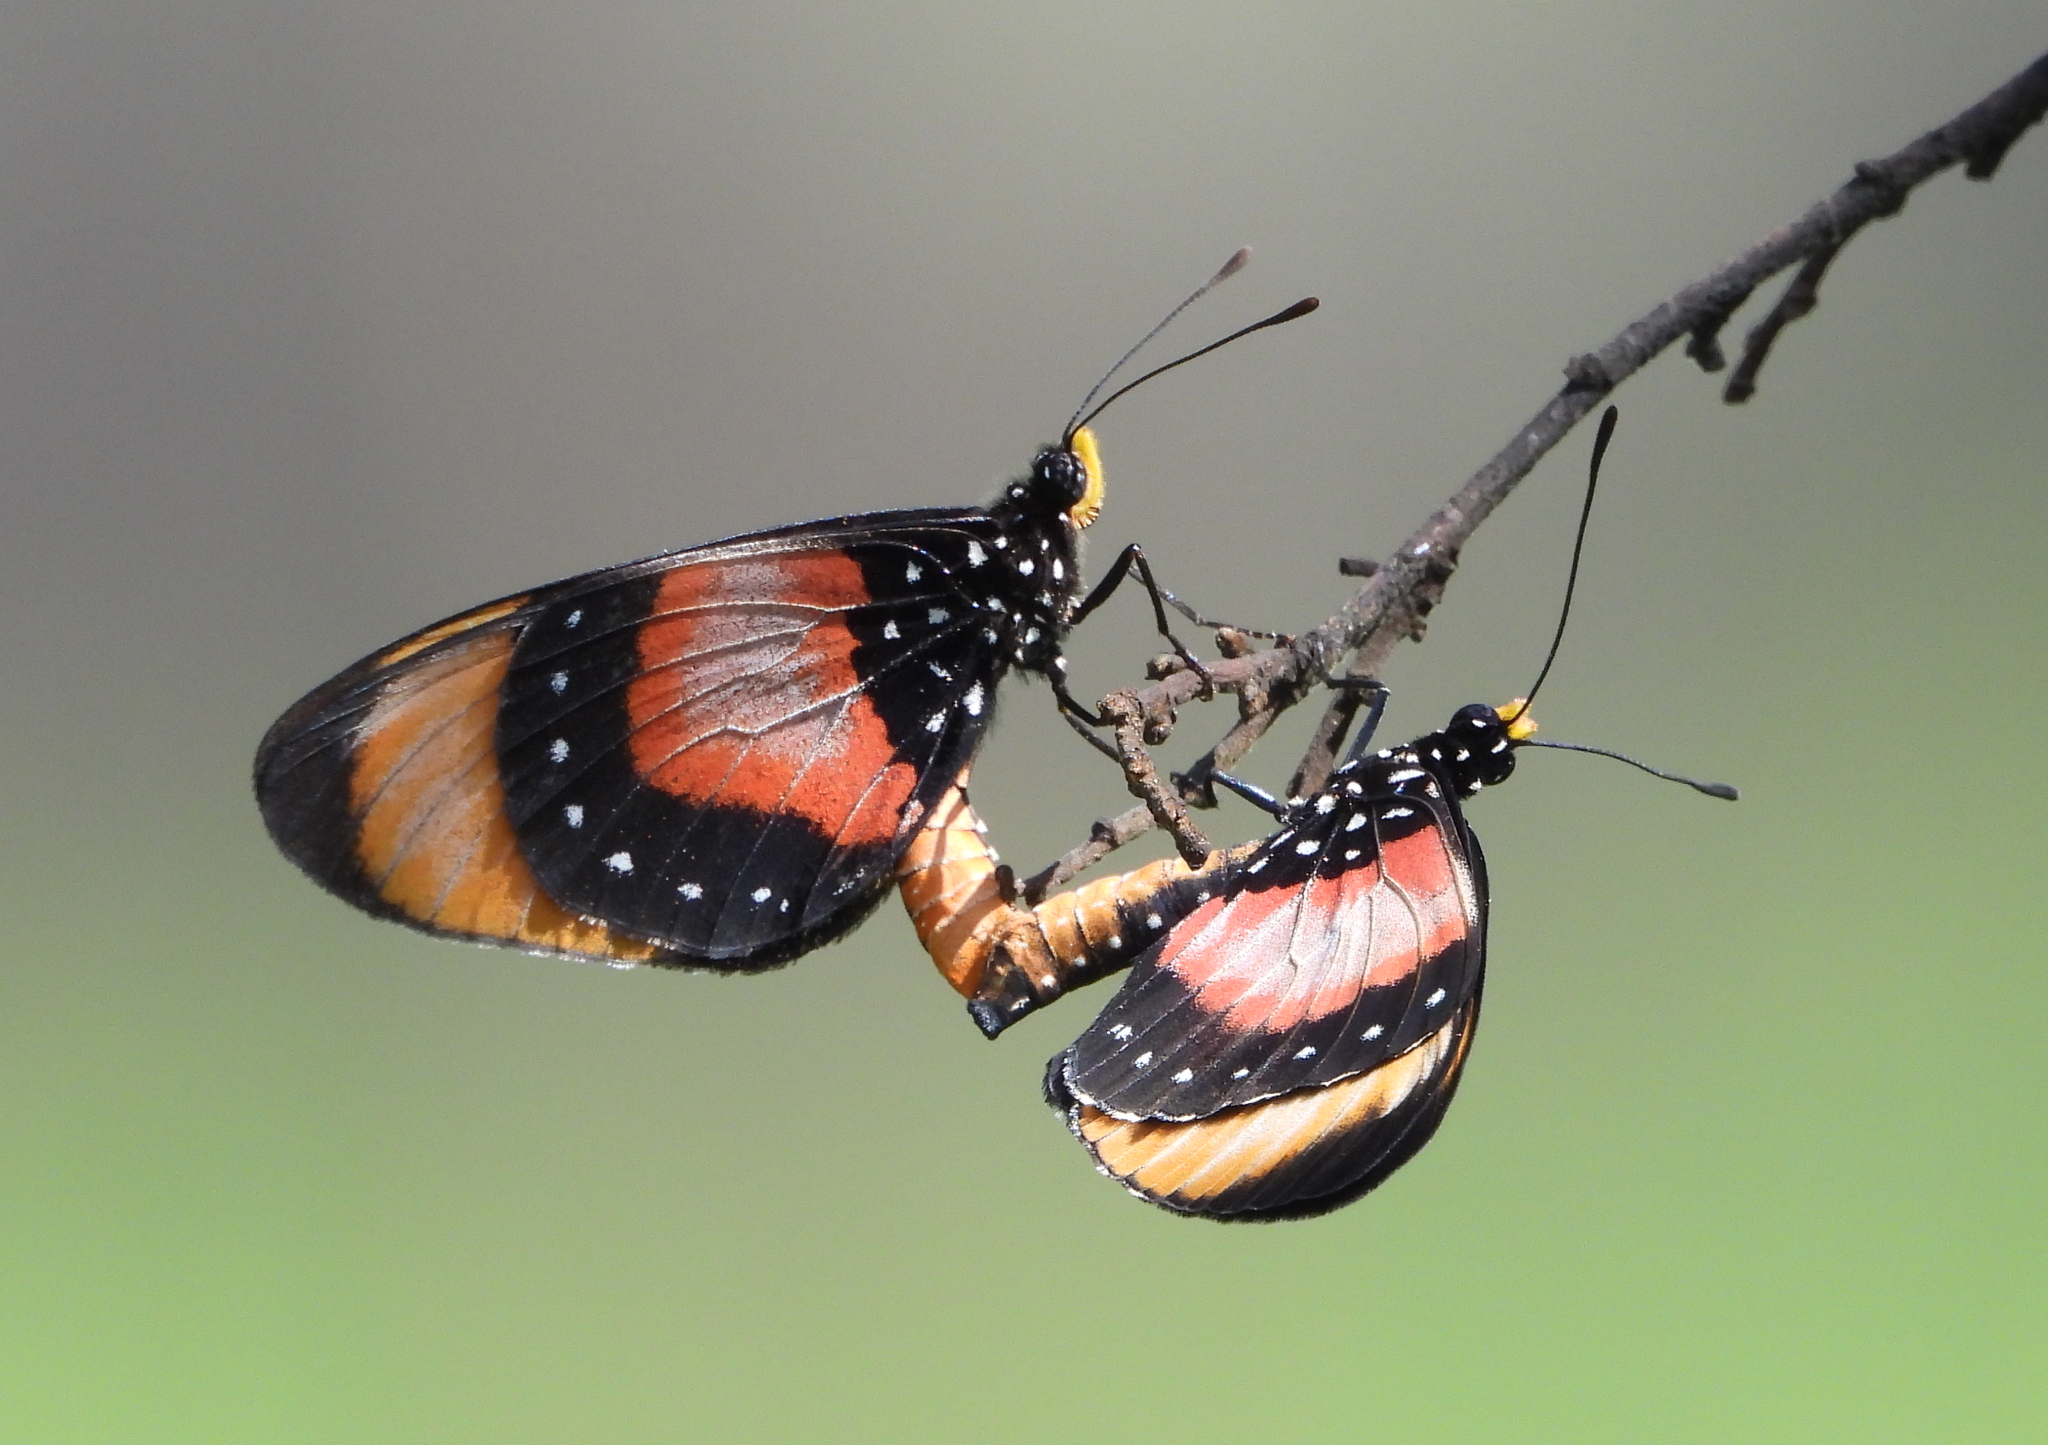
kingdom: Animalia
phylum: Arthropoda
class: Insecta
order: Lepidoptera
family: Nymphalidae
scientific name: Nymphalidae
